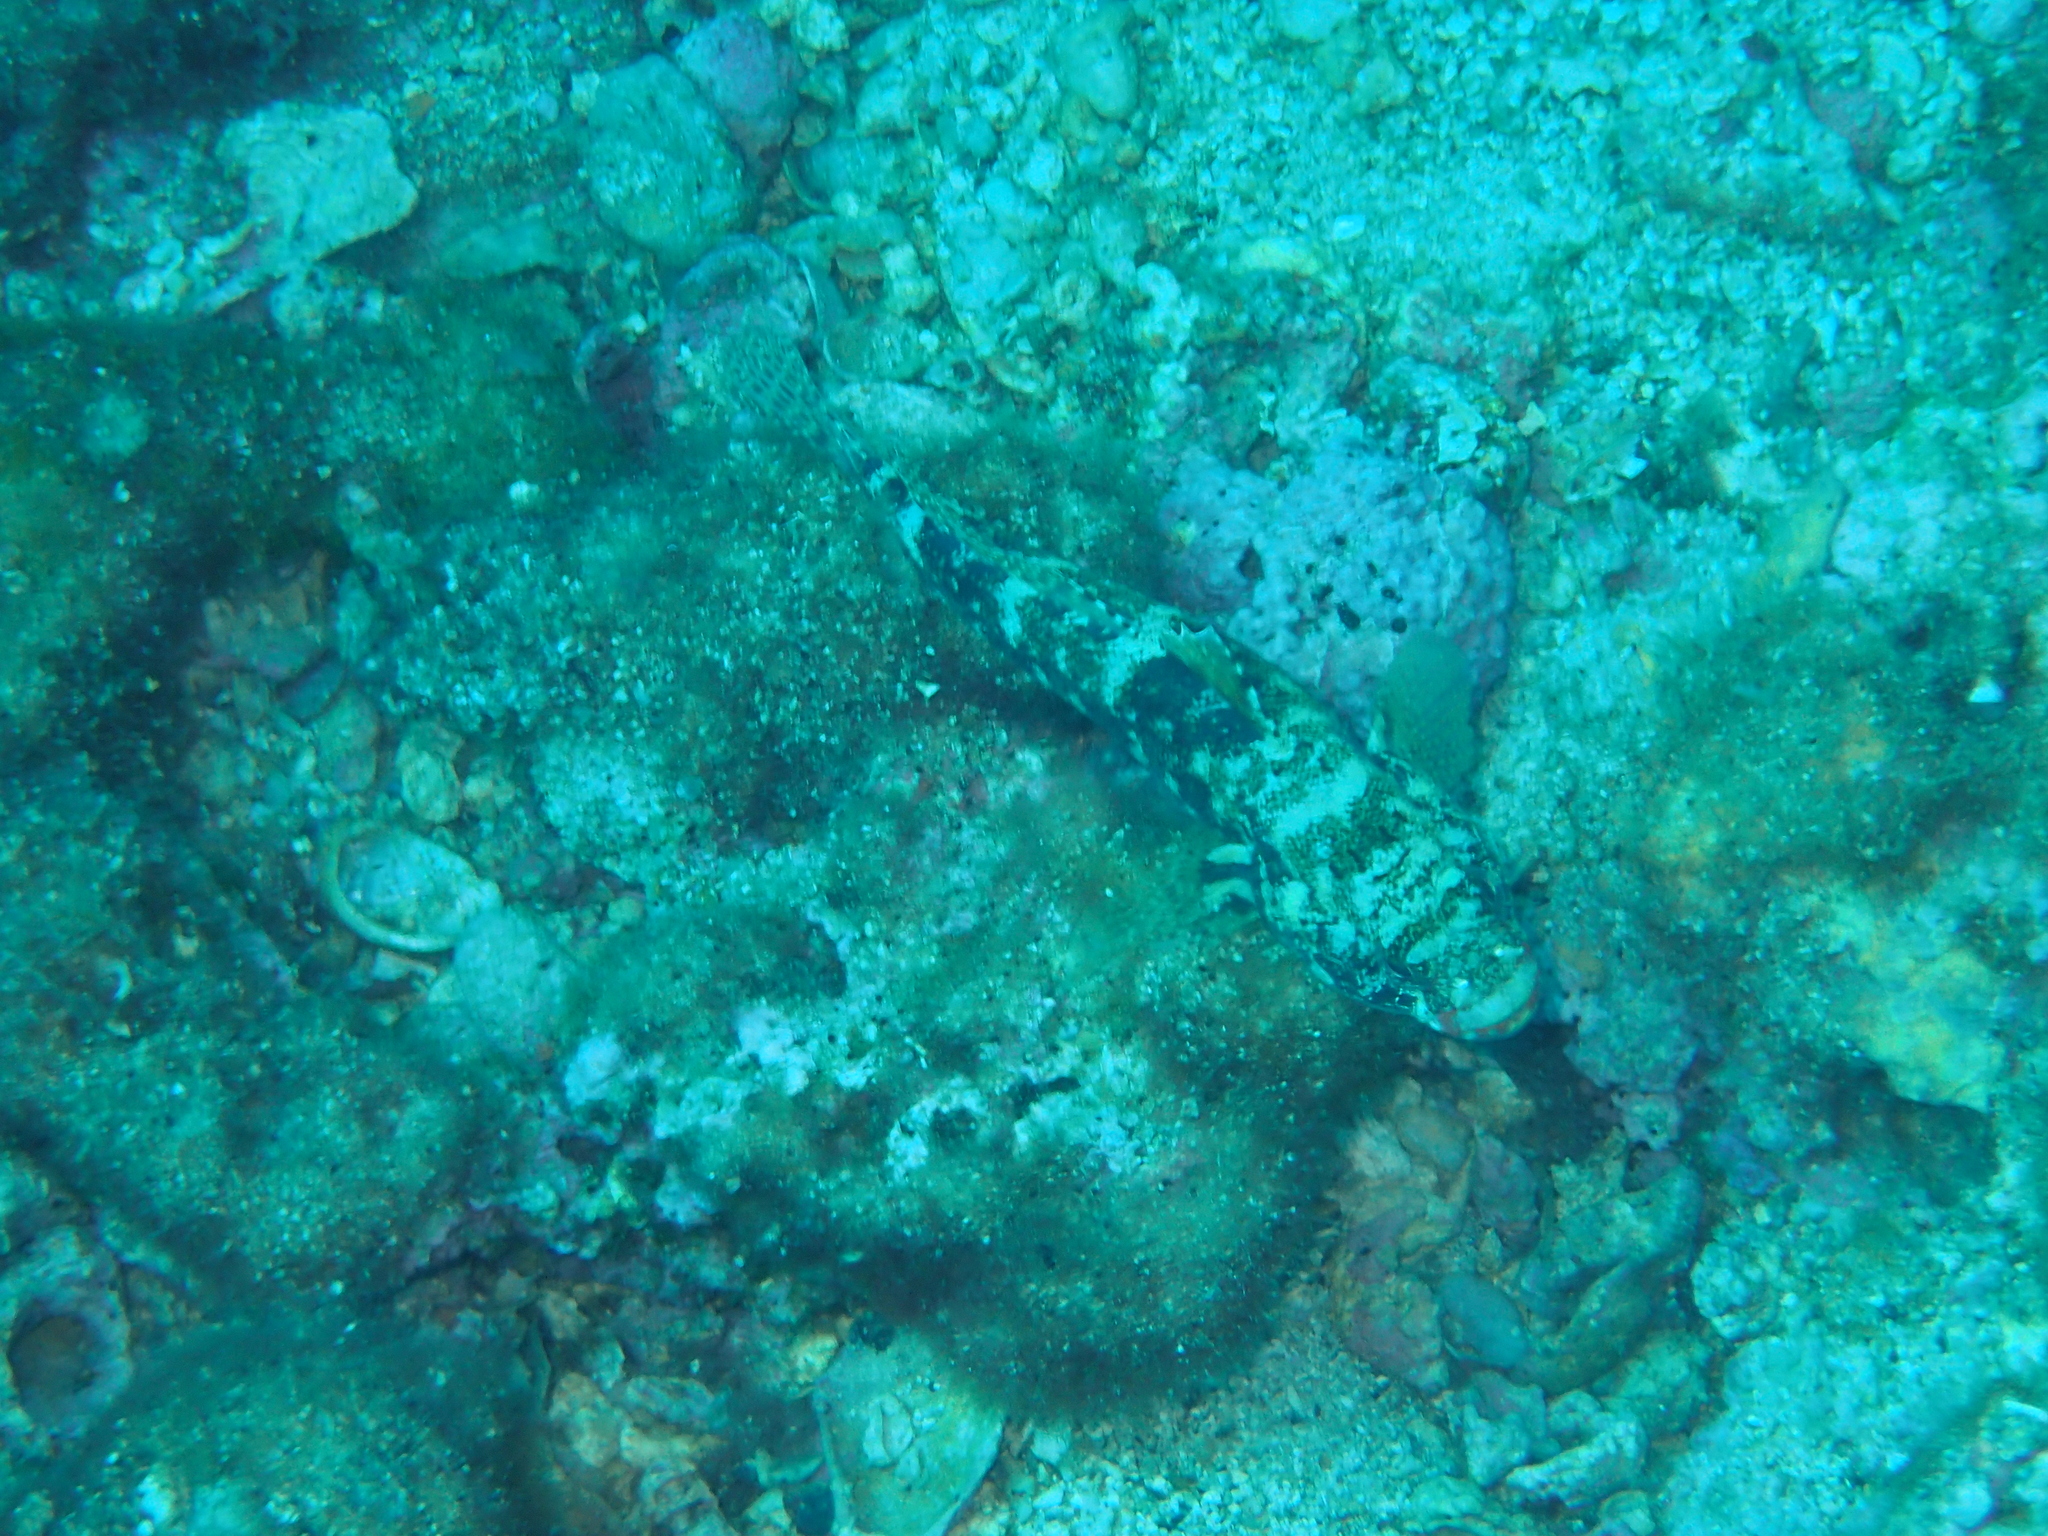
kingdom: Animalia
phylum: Chordata
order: Perciformes
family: Gobiidae
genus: Gobius
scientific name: Gobius cruentatus
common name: Red-mouthed goby
